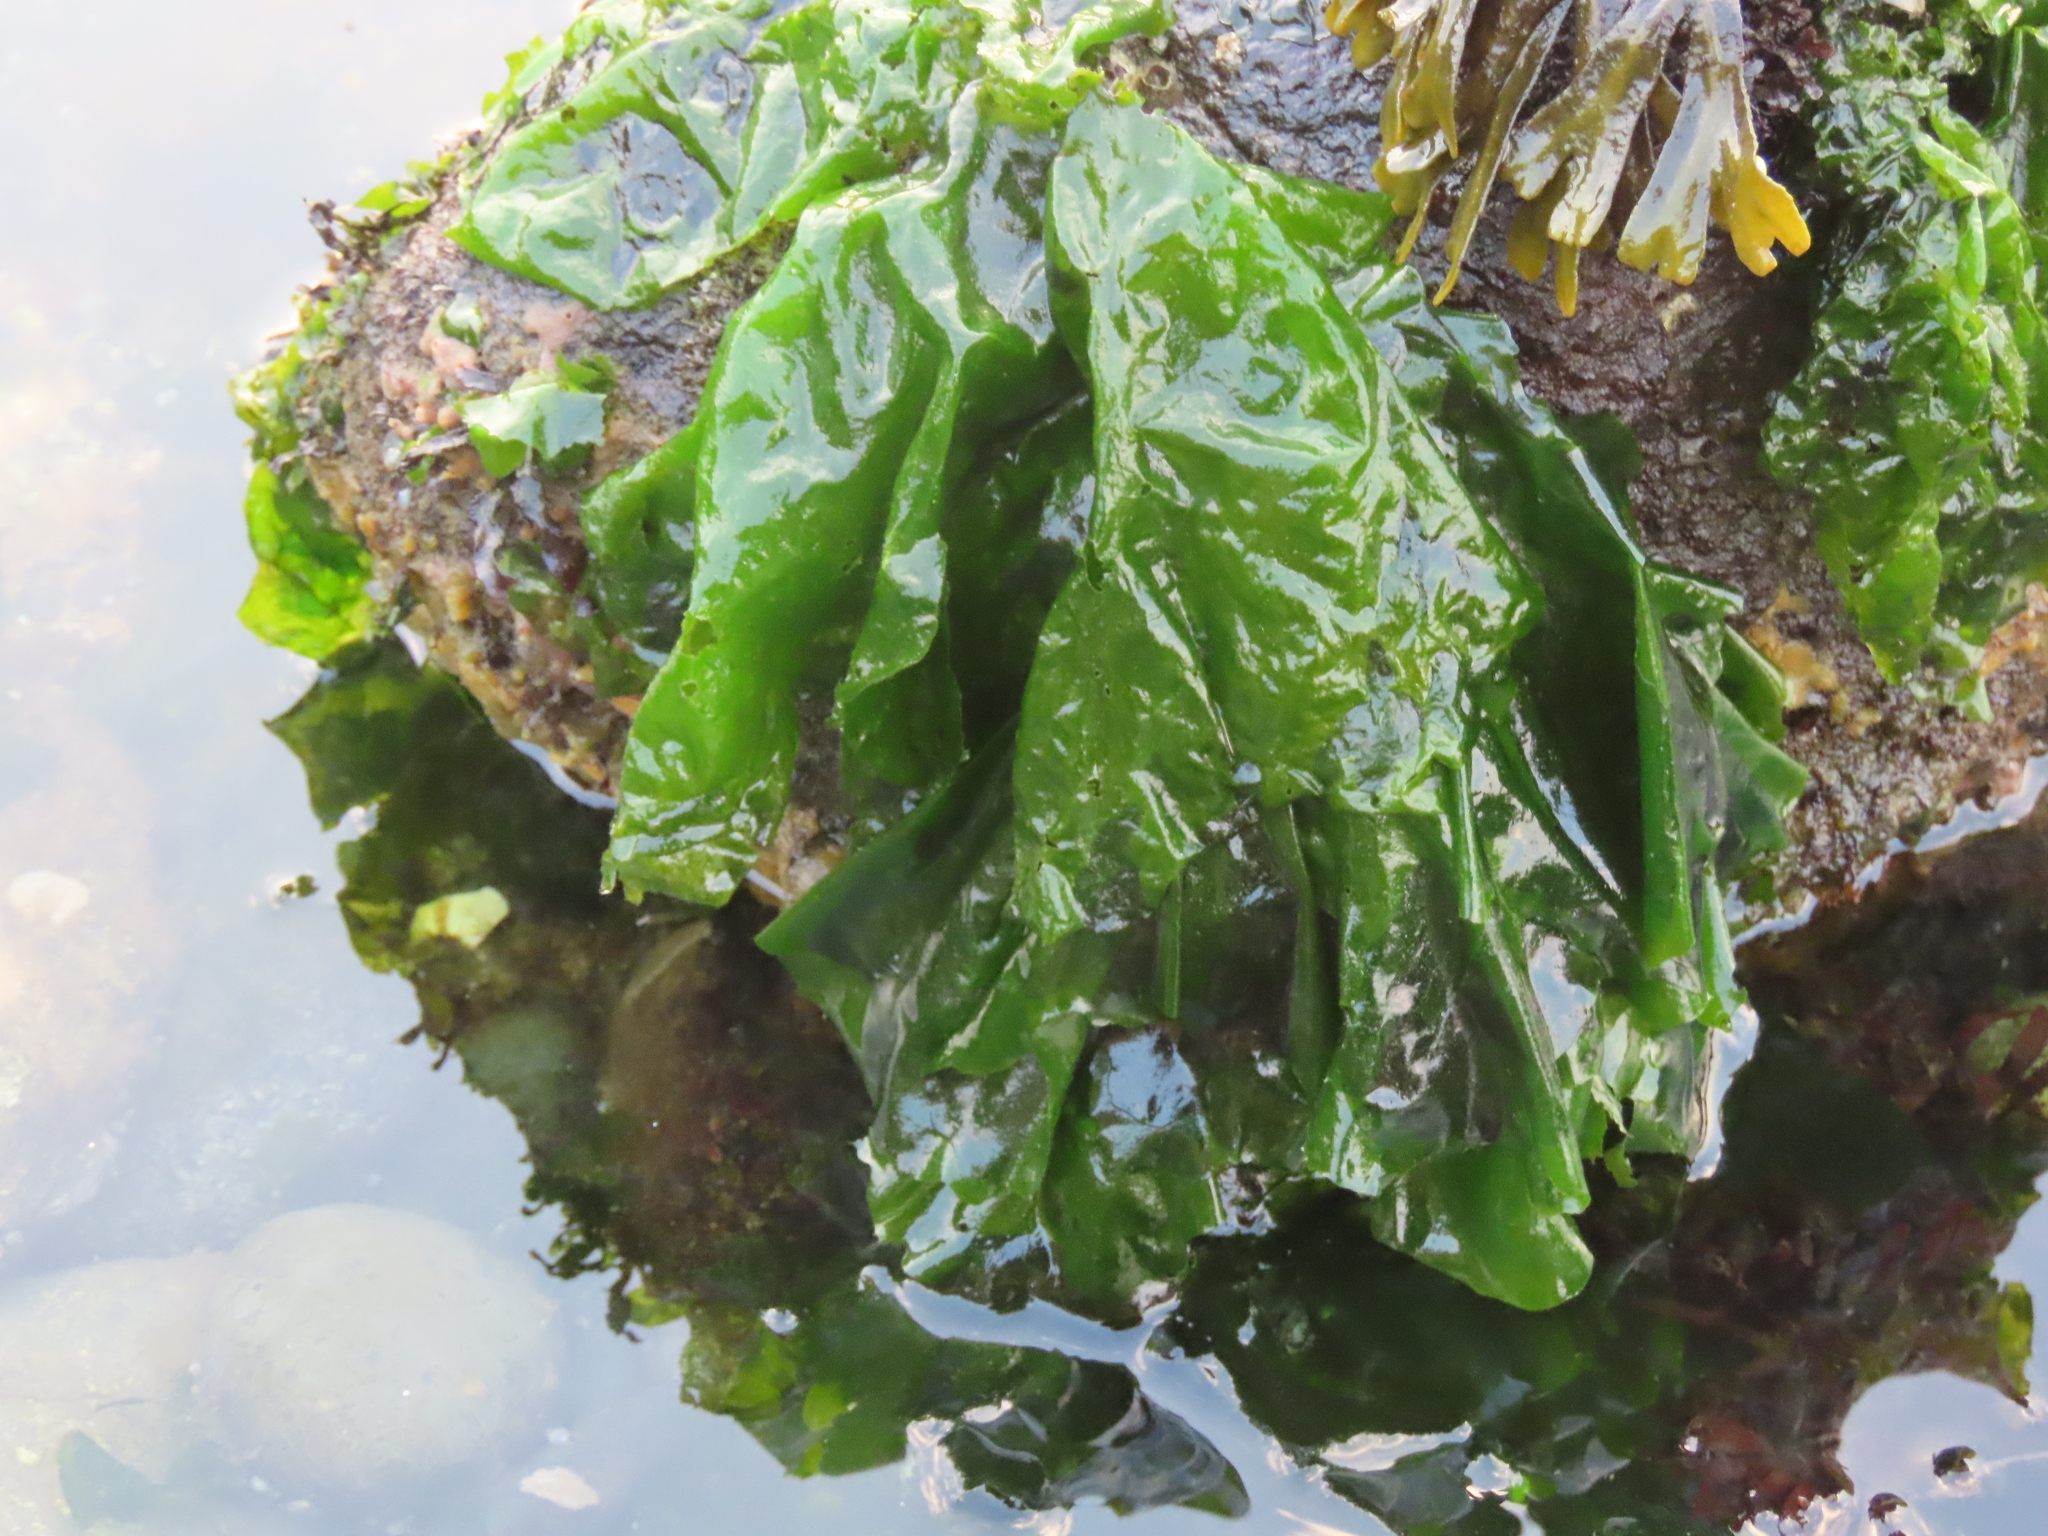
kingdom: Plantae
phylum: Chlorophyta
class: Ulvophyceae
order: Ulvales
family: Ulvaceae
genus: Ulva
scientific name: Ulva lactuca
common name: Sea lettuce
